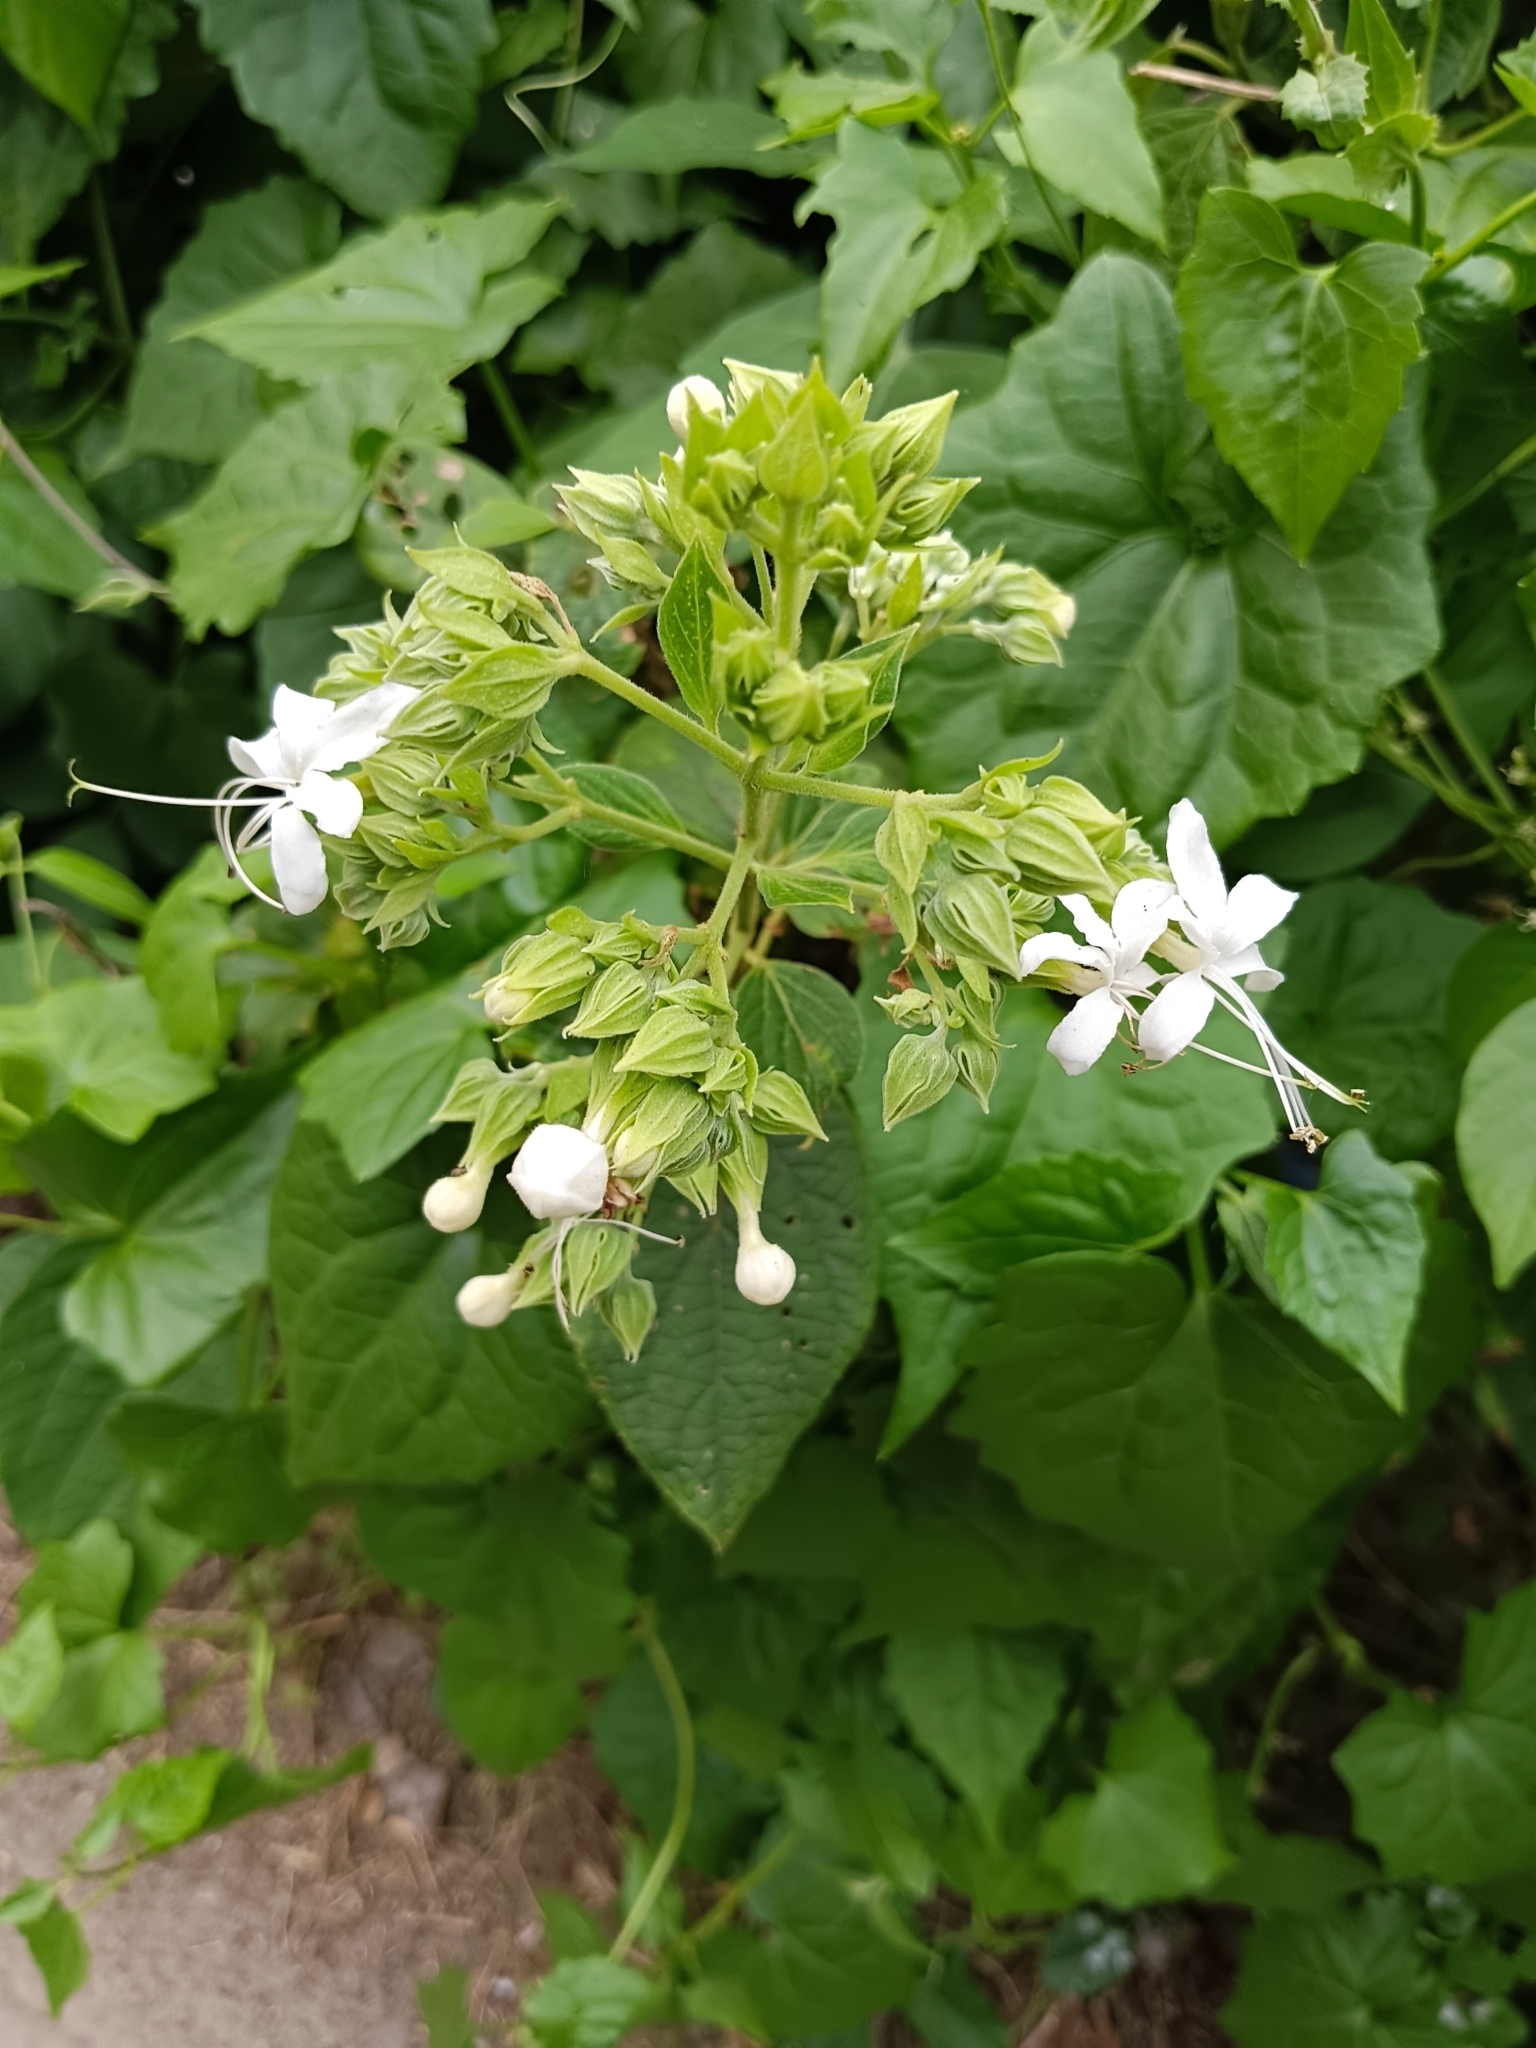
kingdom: Plantae
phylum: Tracheophyta
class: Magnoliopsida
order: Lamiales
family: Lamiaceae
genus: Clerodendrum
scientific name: Clerodendrum infortunatum
